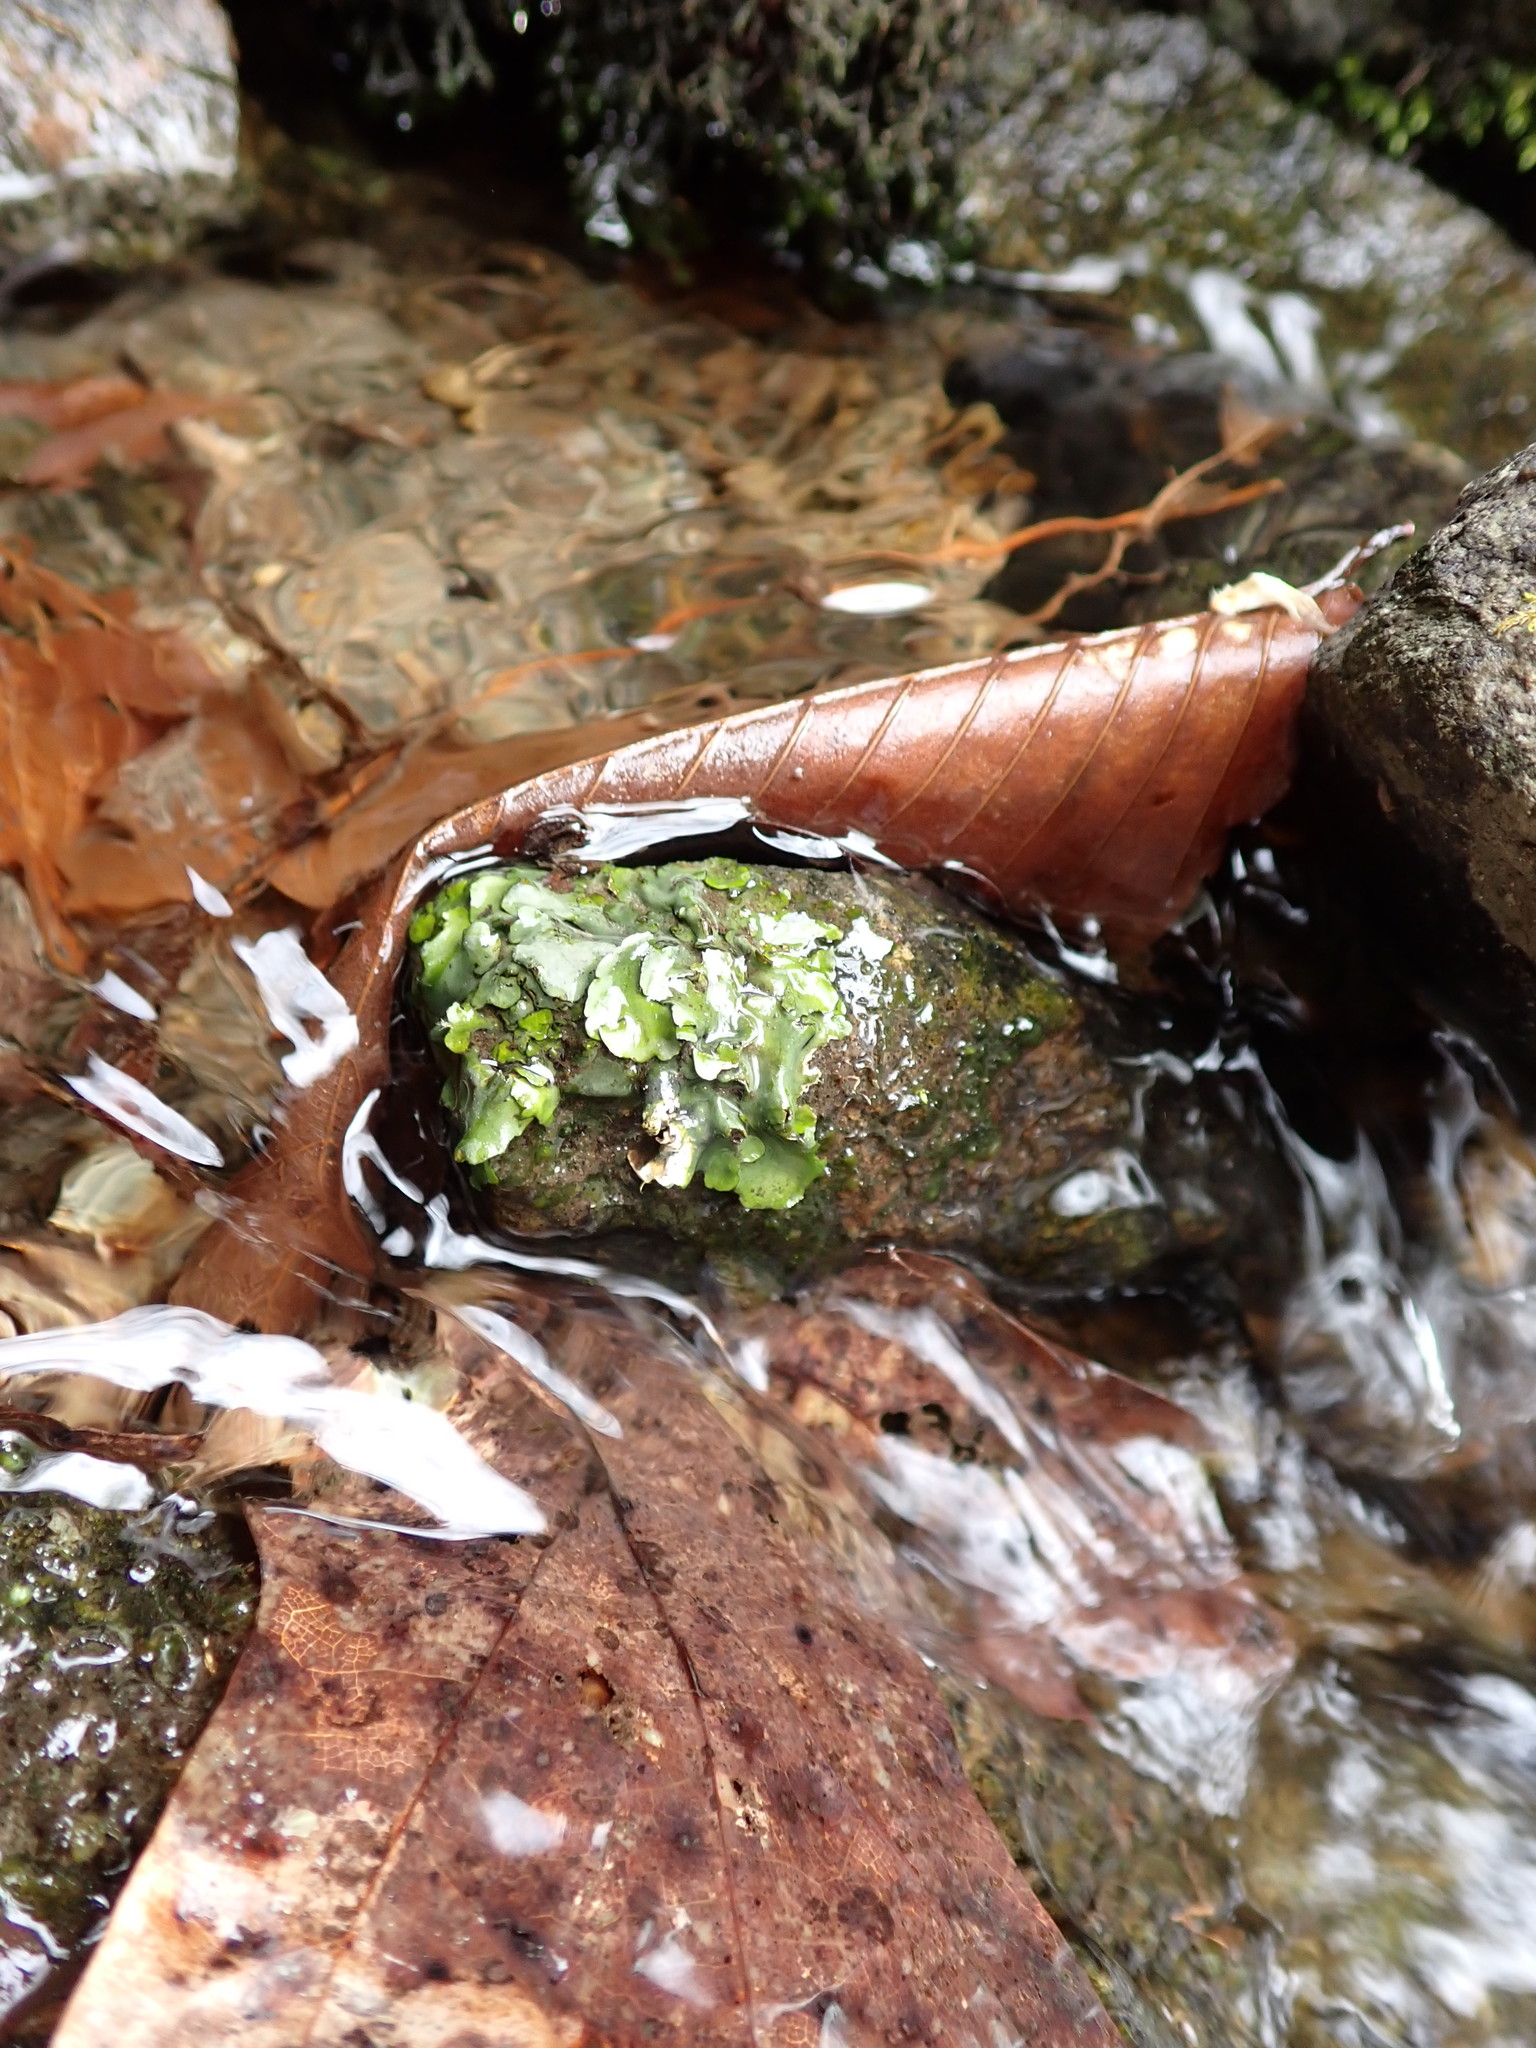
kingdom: Fungi
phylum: Ascomycota
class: Eurotiomycetes
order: Verrucariales
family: Verrucariaceae
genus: Dermatocarpon
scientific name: Dermatocarpon luridum
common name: Brook stippleback lichen
